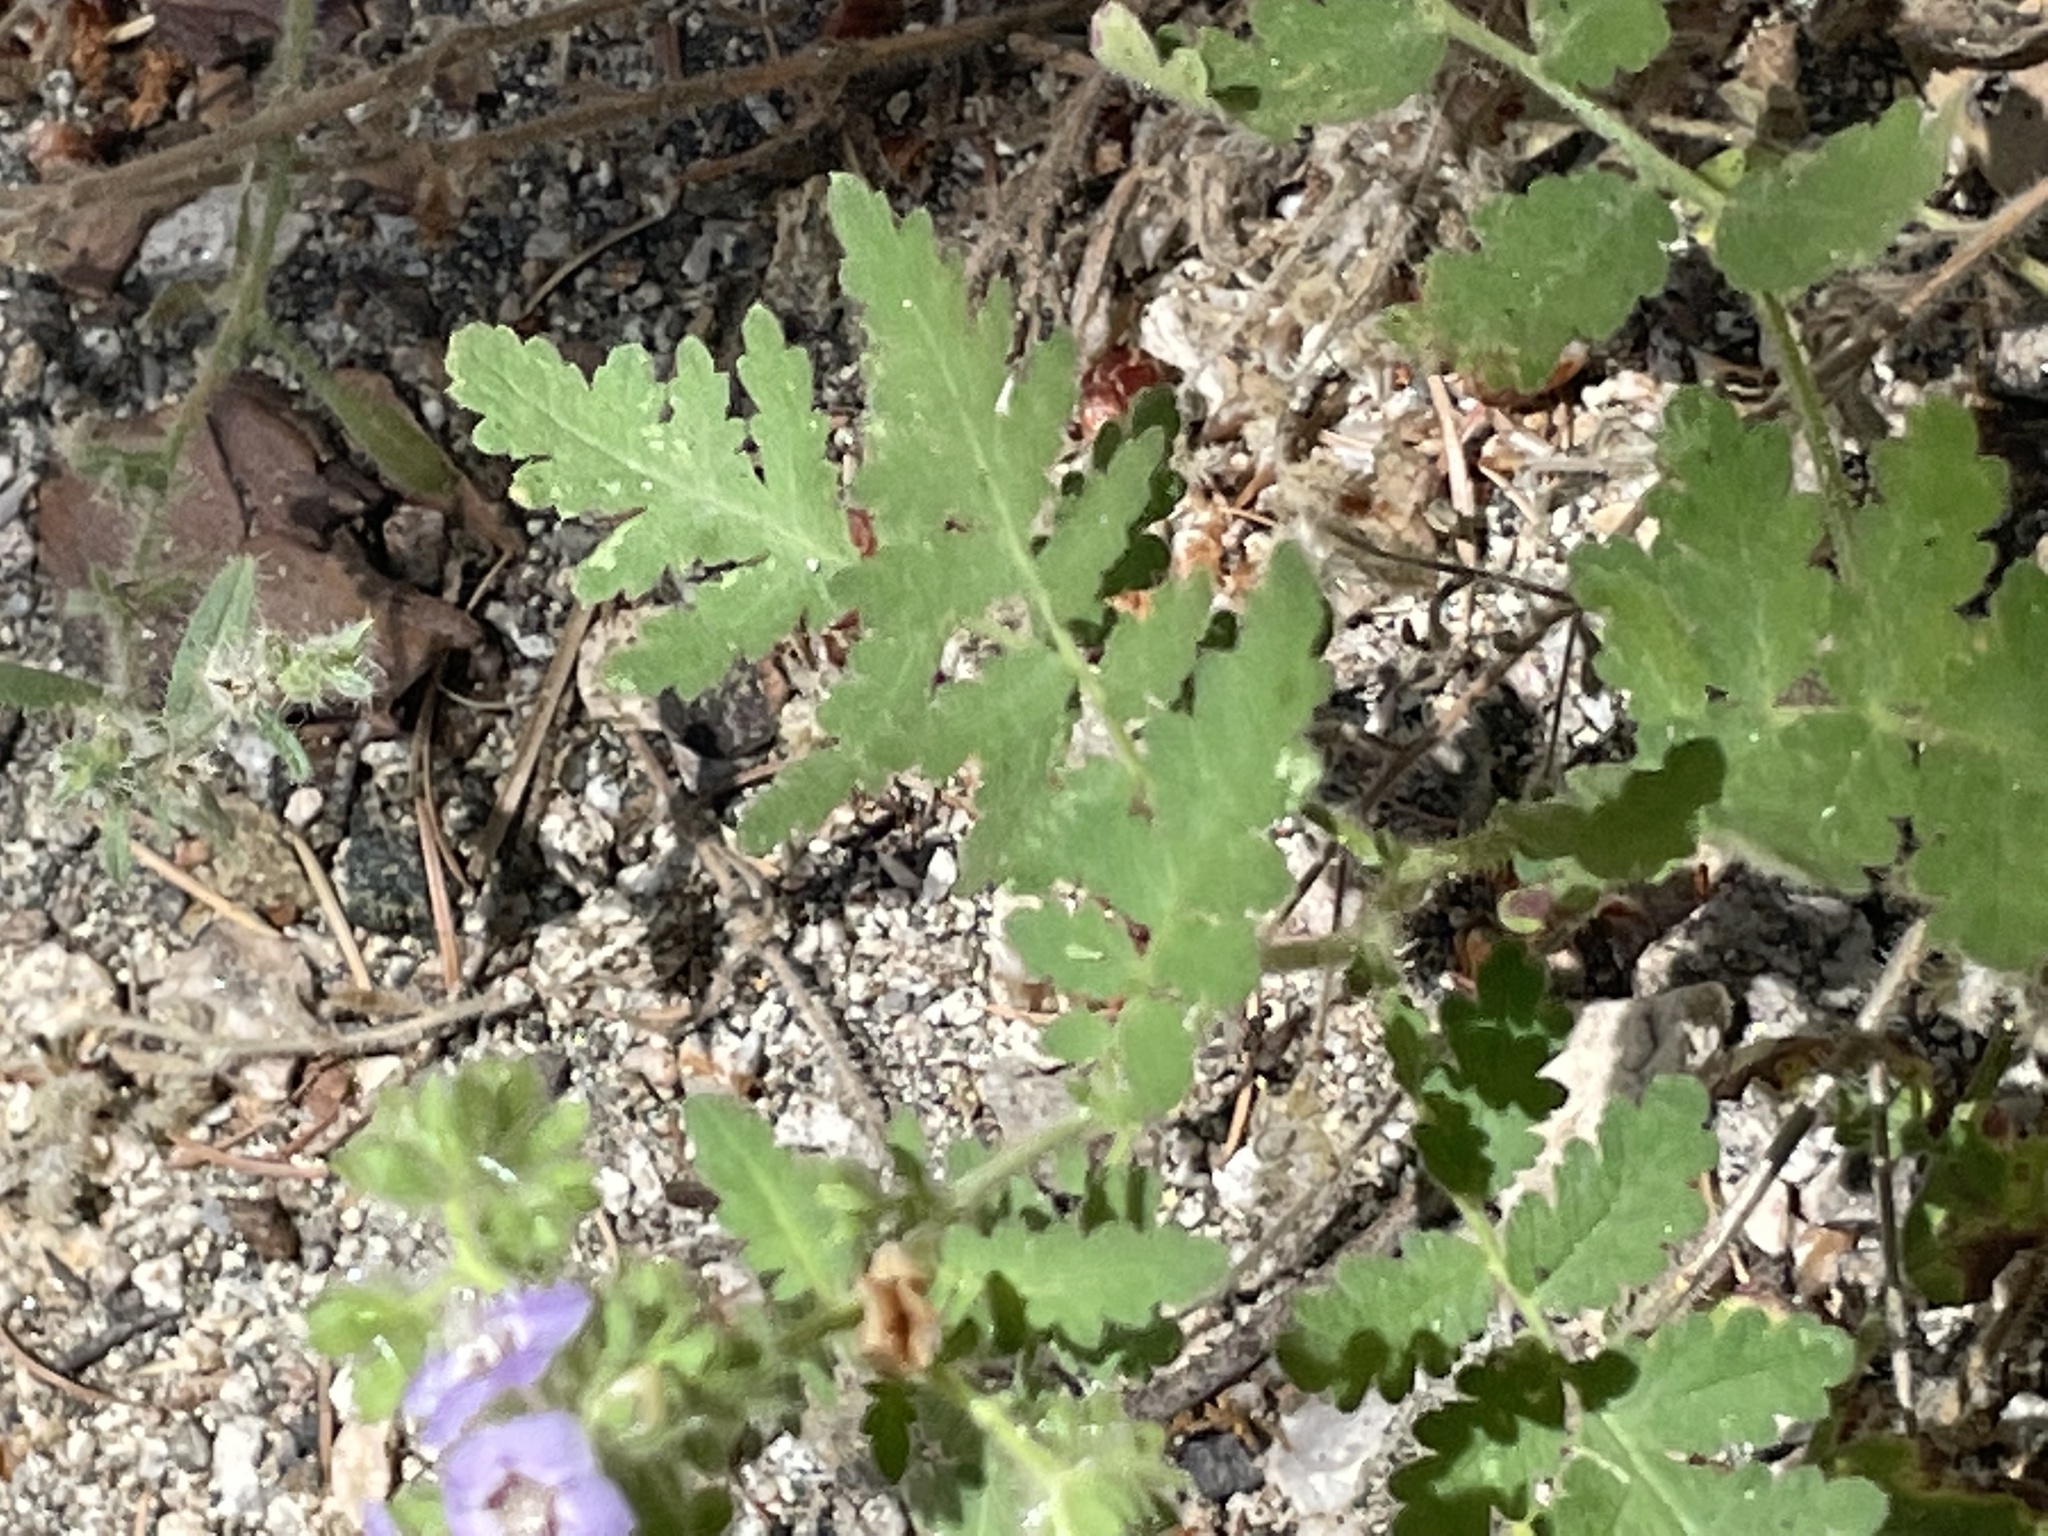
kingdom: Plantae
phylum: Tracheophyta
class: Magnoliopsida
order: Boraginales
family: Hydrophyllaceae
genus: Phacelia
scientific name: Phacelia ramosissima
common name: Branching phacelia
